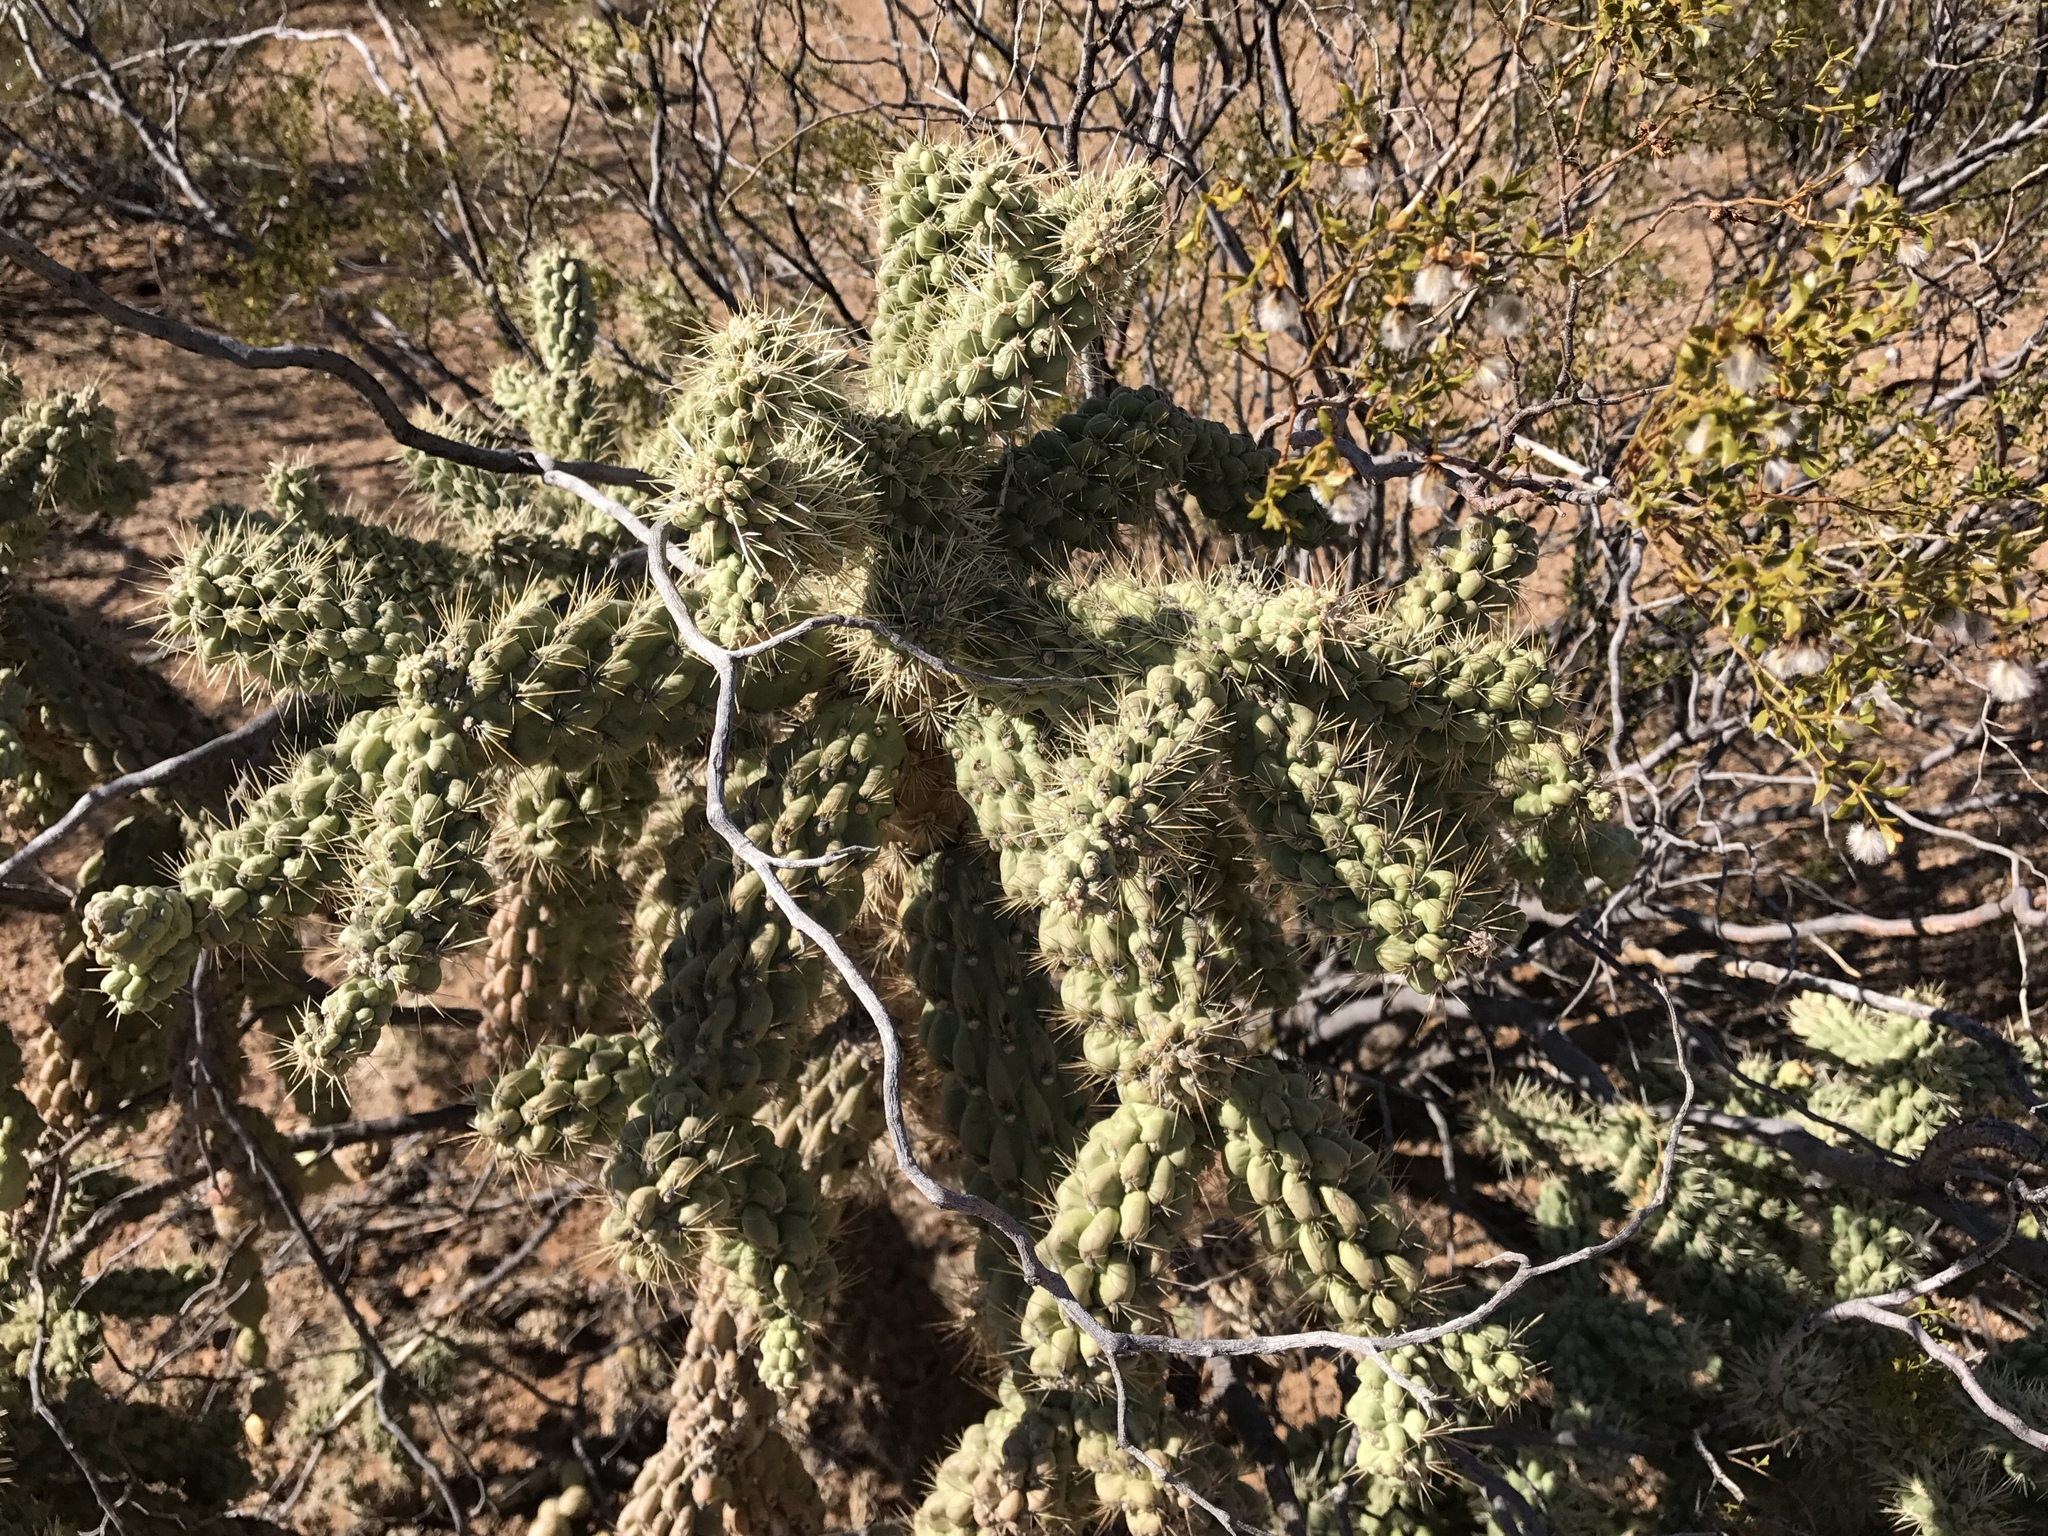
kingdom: Plantae
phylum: Tracheophyta
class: Magnoliopsida
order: Caryophyllales
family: Cactaceae
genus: Cylindropuntia
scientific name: Cylindropuntia fulgida
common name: Jumping cholla
